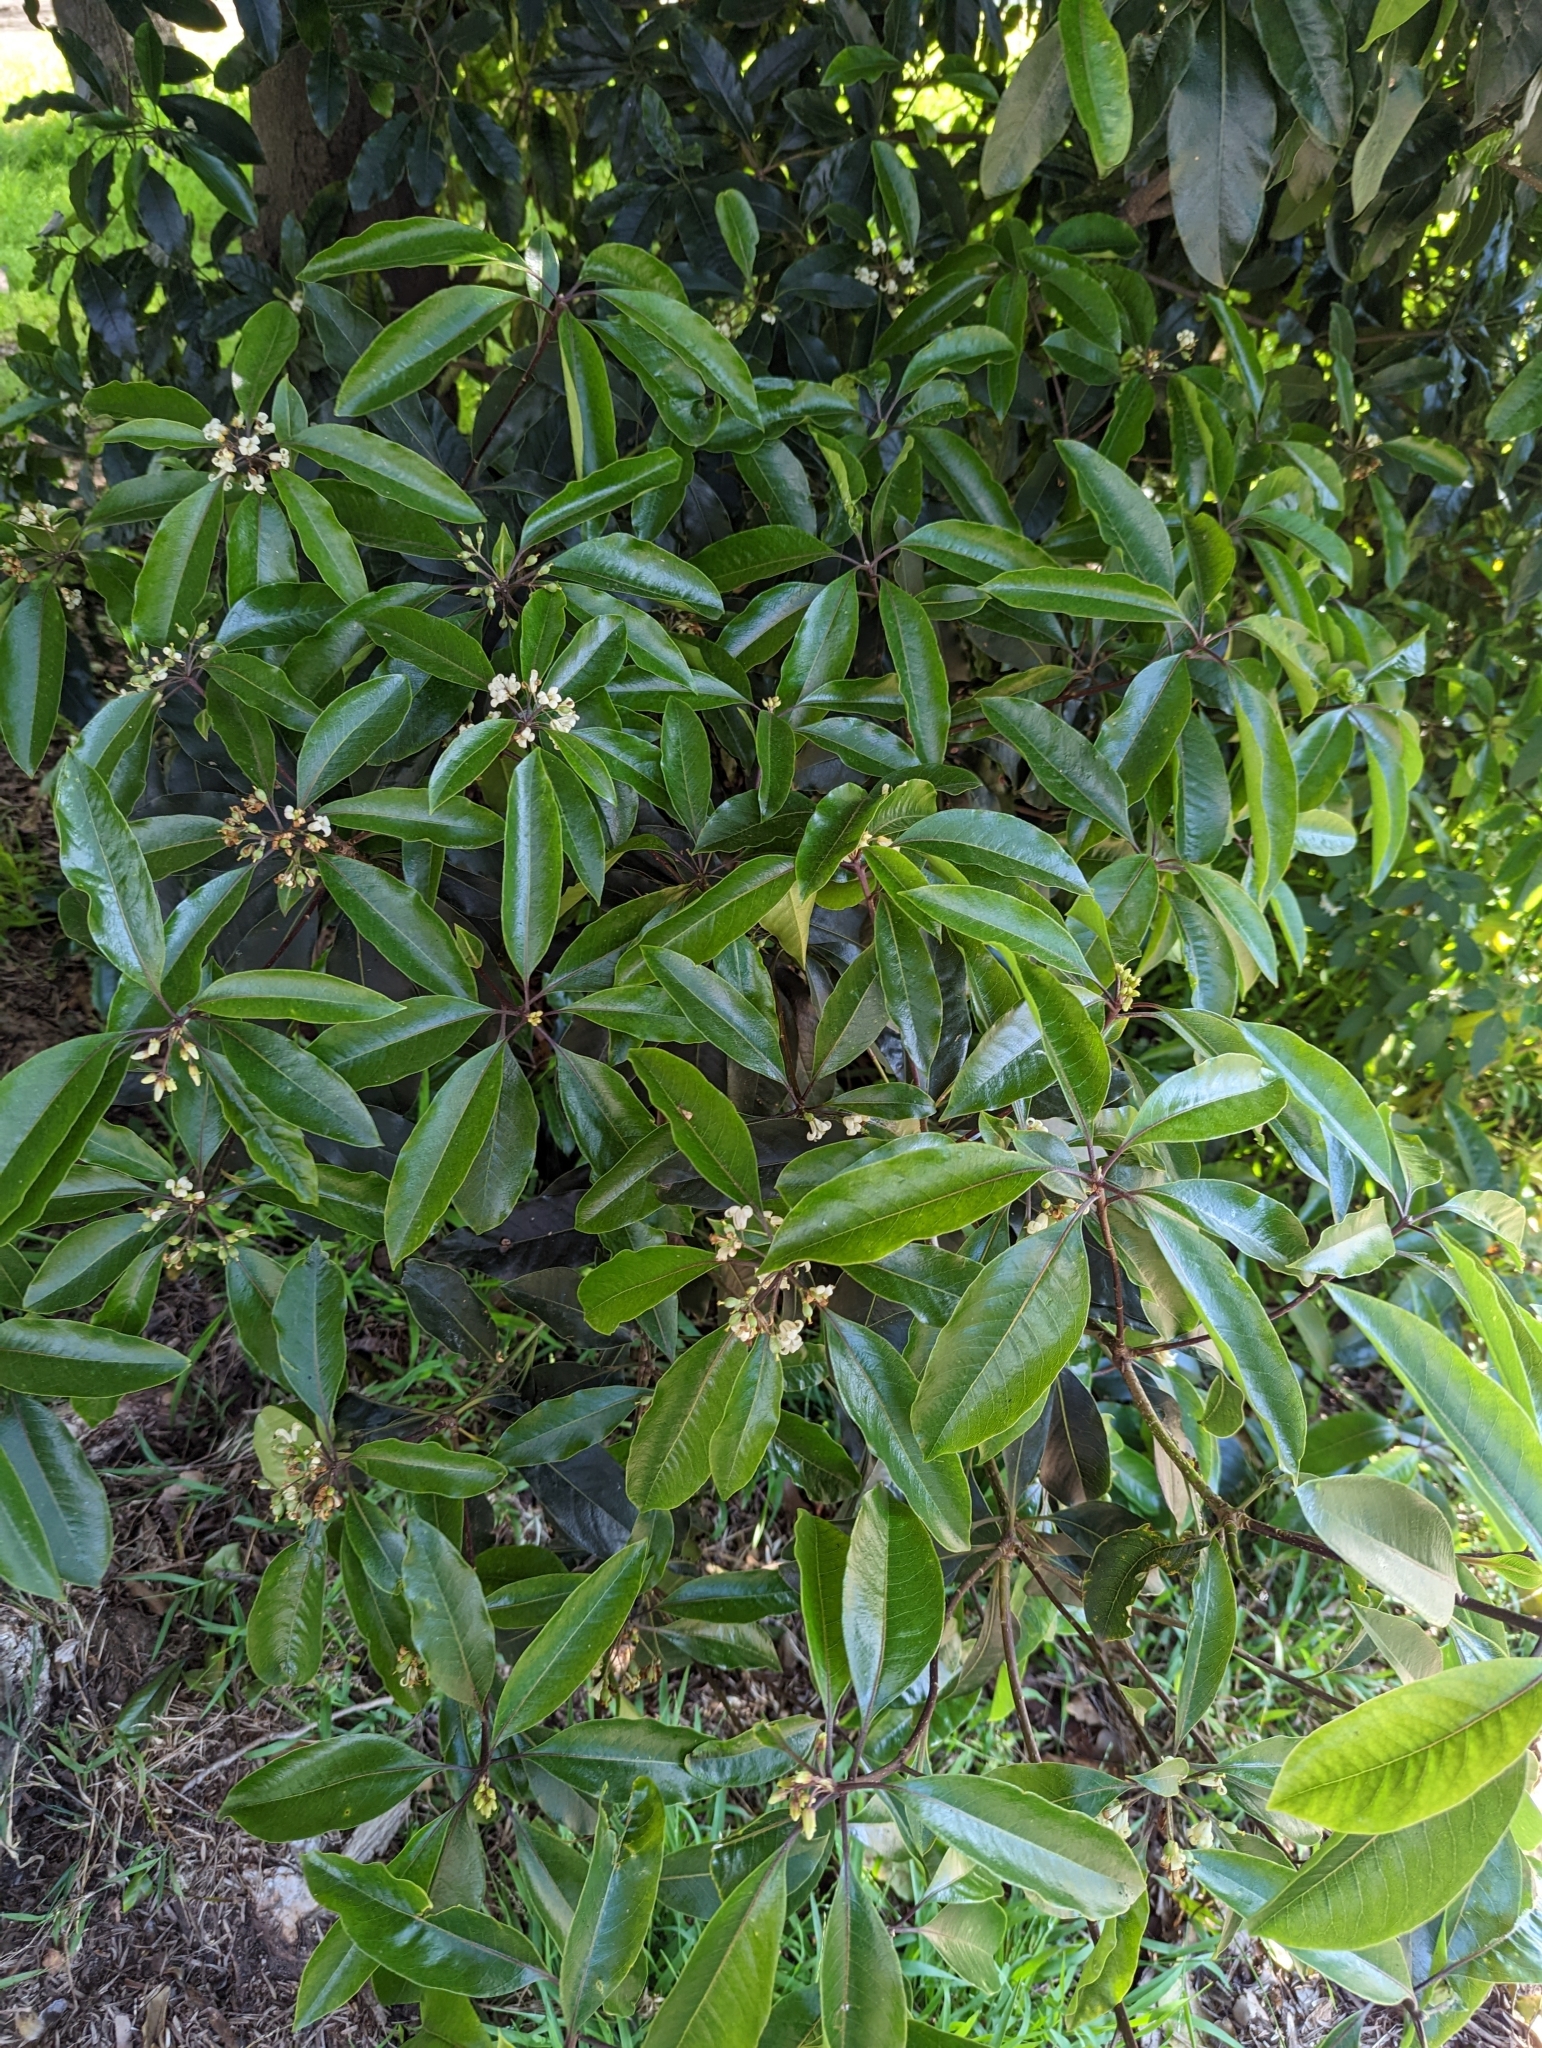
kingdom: Plantae
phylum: Tracheophyta
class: Magnoliopsida
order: Apiales
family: Pittosporaceae
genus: Pittosporum
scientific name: Pittosporum undulatum
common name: Australian cheesewood
